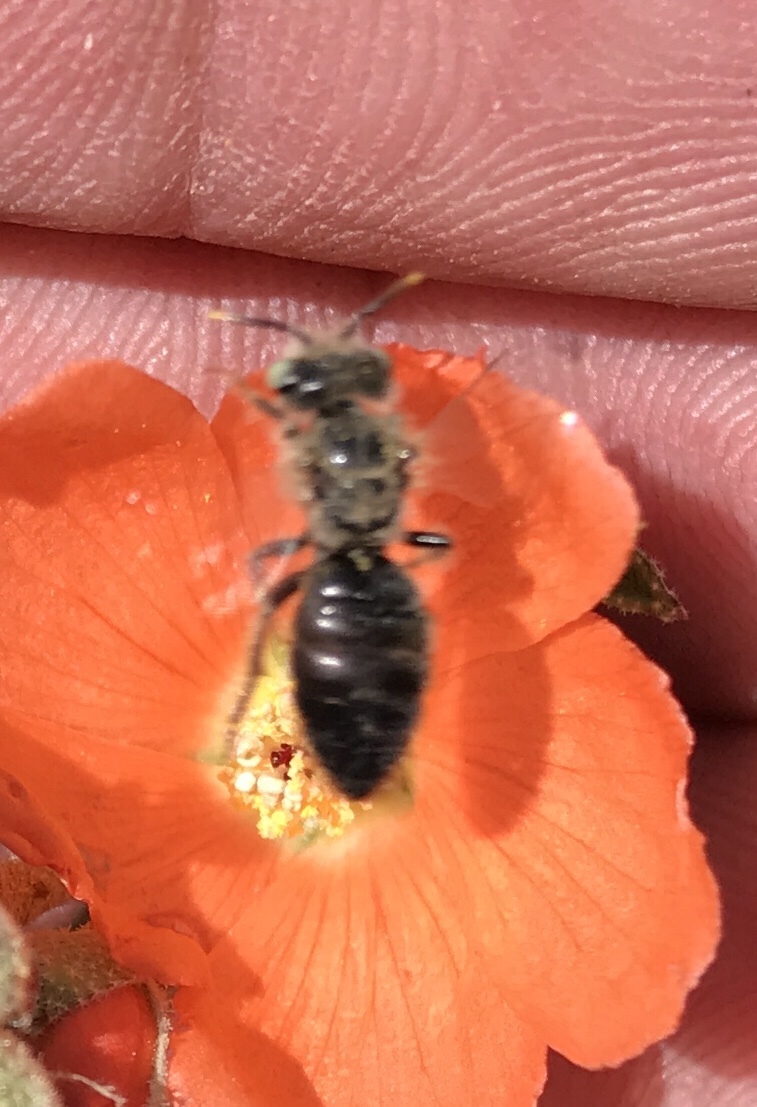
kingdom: Animalia
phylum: Arthropoda
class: Insecta
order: Hymenoptera
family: Andrenidae
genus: Calliopsis
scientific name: Calliopsis subalpina
